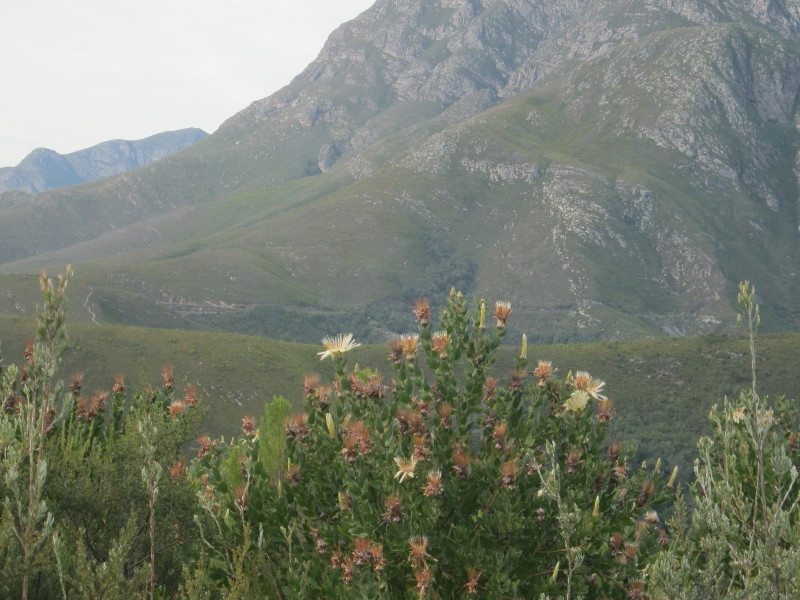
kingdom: Plantae
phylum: Tracheophyta
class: Magnoliopsida
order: Proteales
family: Proteaceae
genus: Protea
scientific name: Protea aurea
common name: Shuttlecock sugarbush
